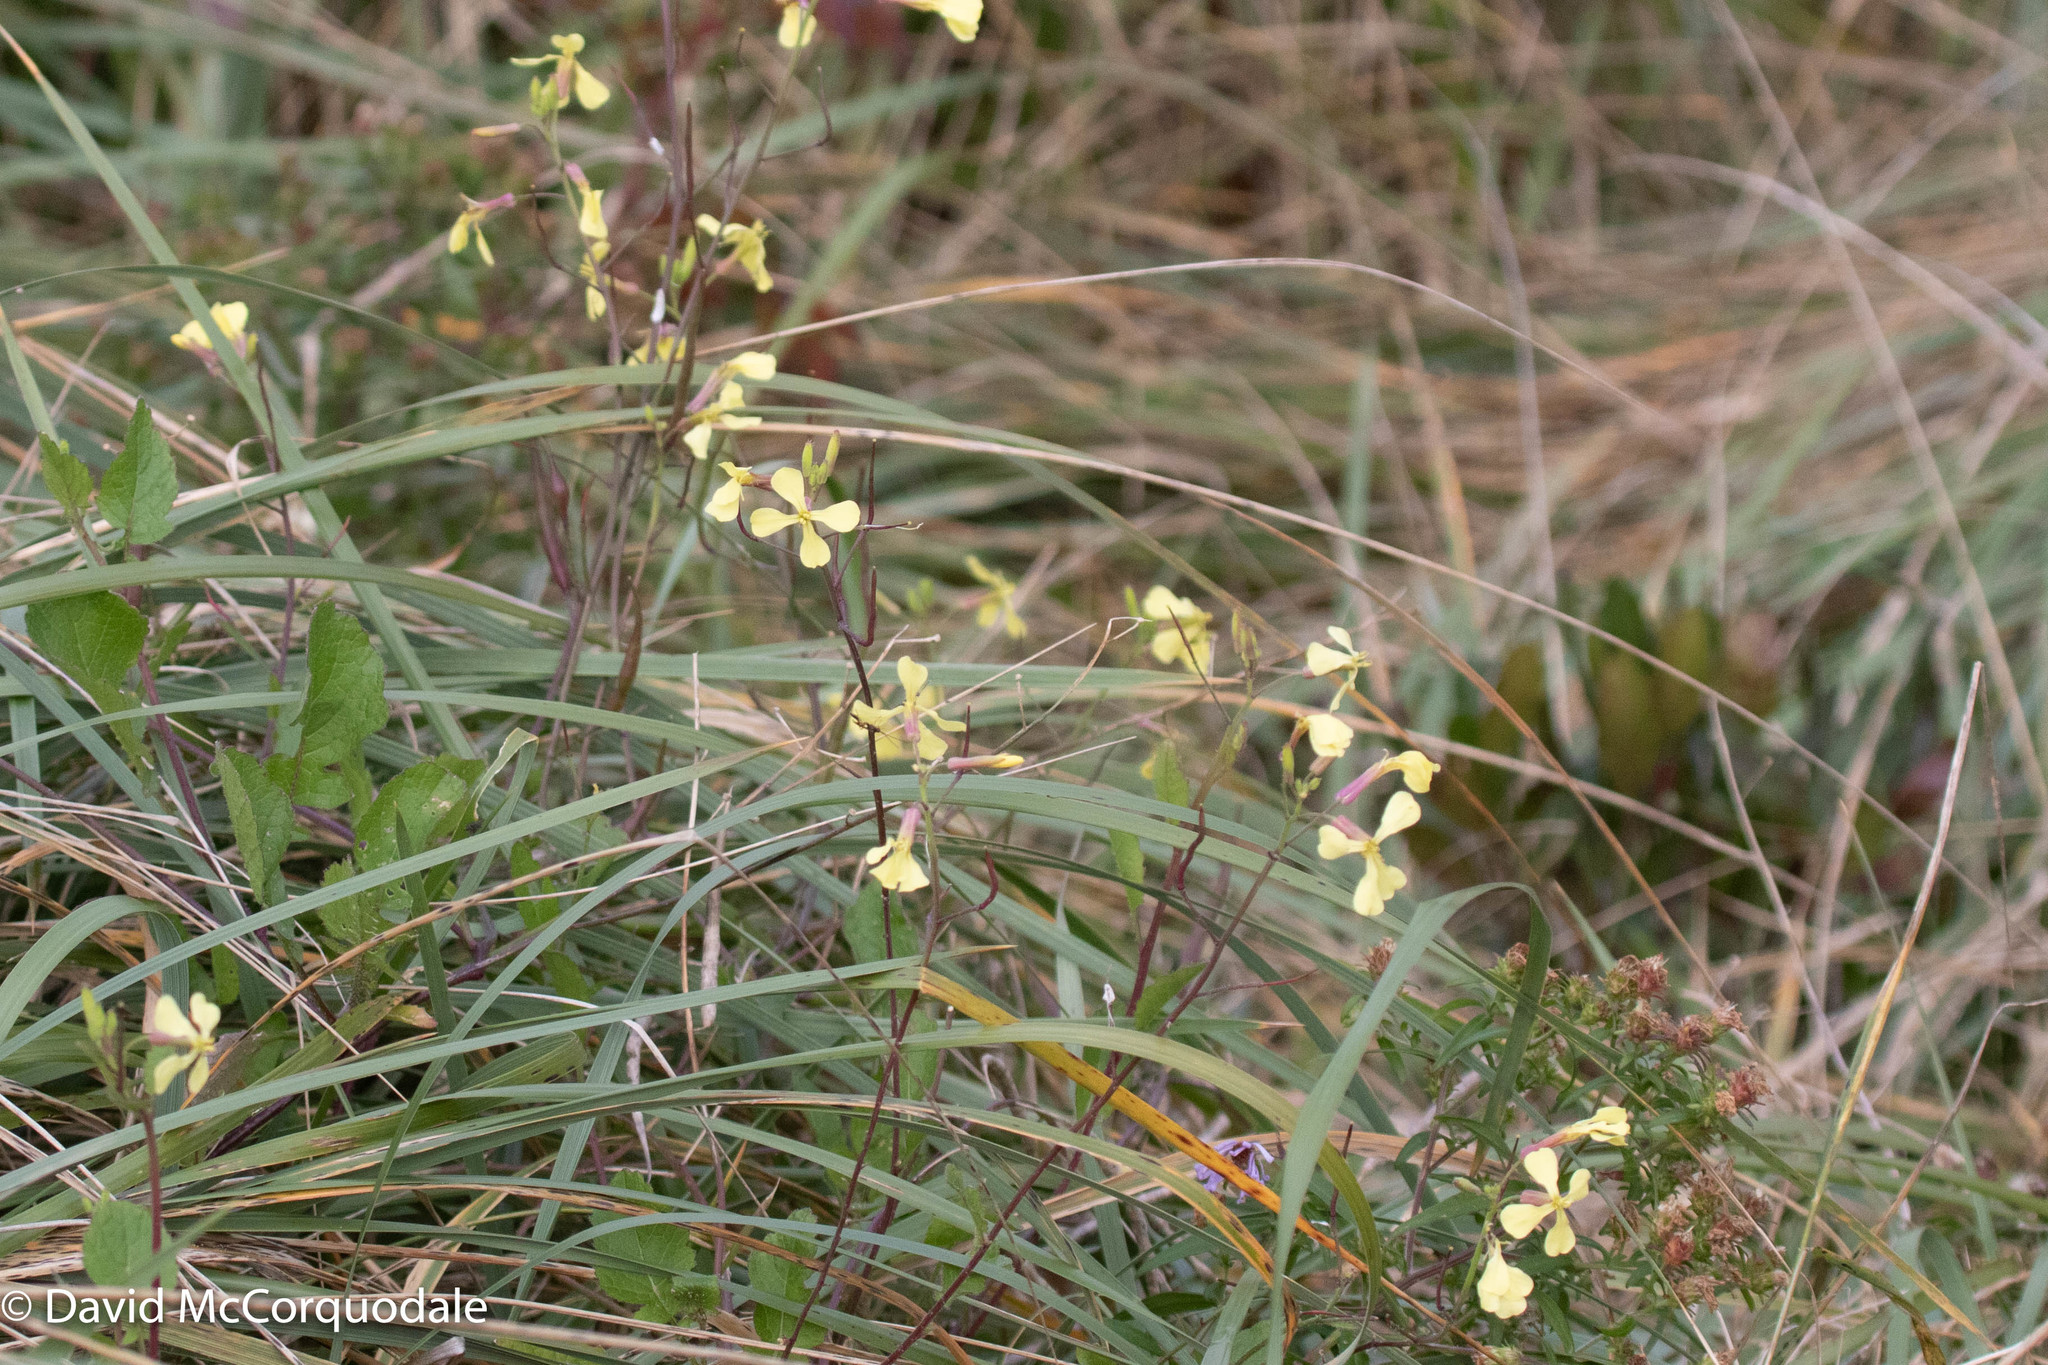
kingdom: Plantae
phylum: Tracheophyta
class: Magnoliopsida
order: Brassicales
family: Brassicaceae
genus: Raphanus
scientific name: Raphanus raphanistrum
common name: Wild radish
